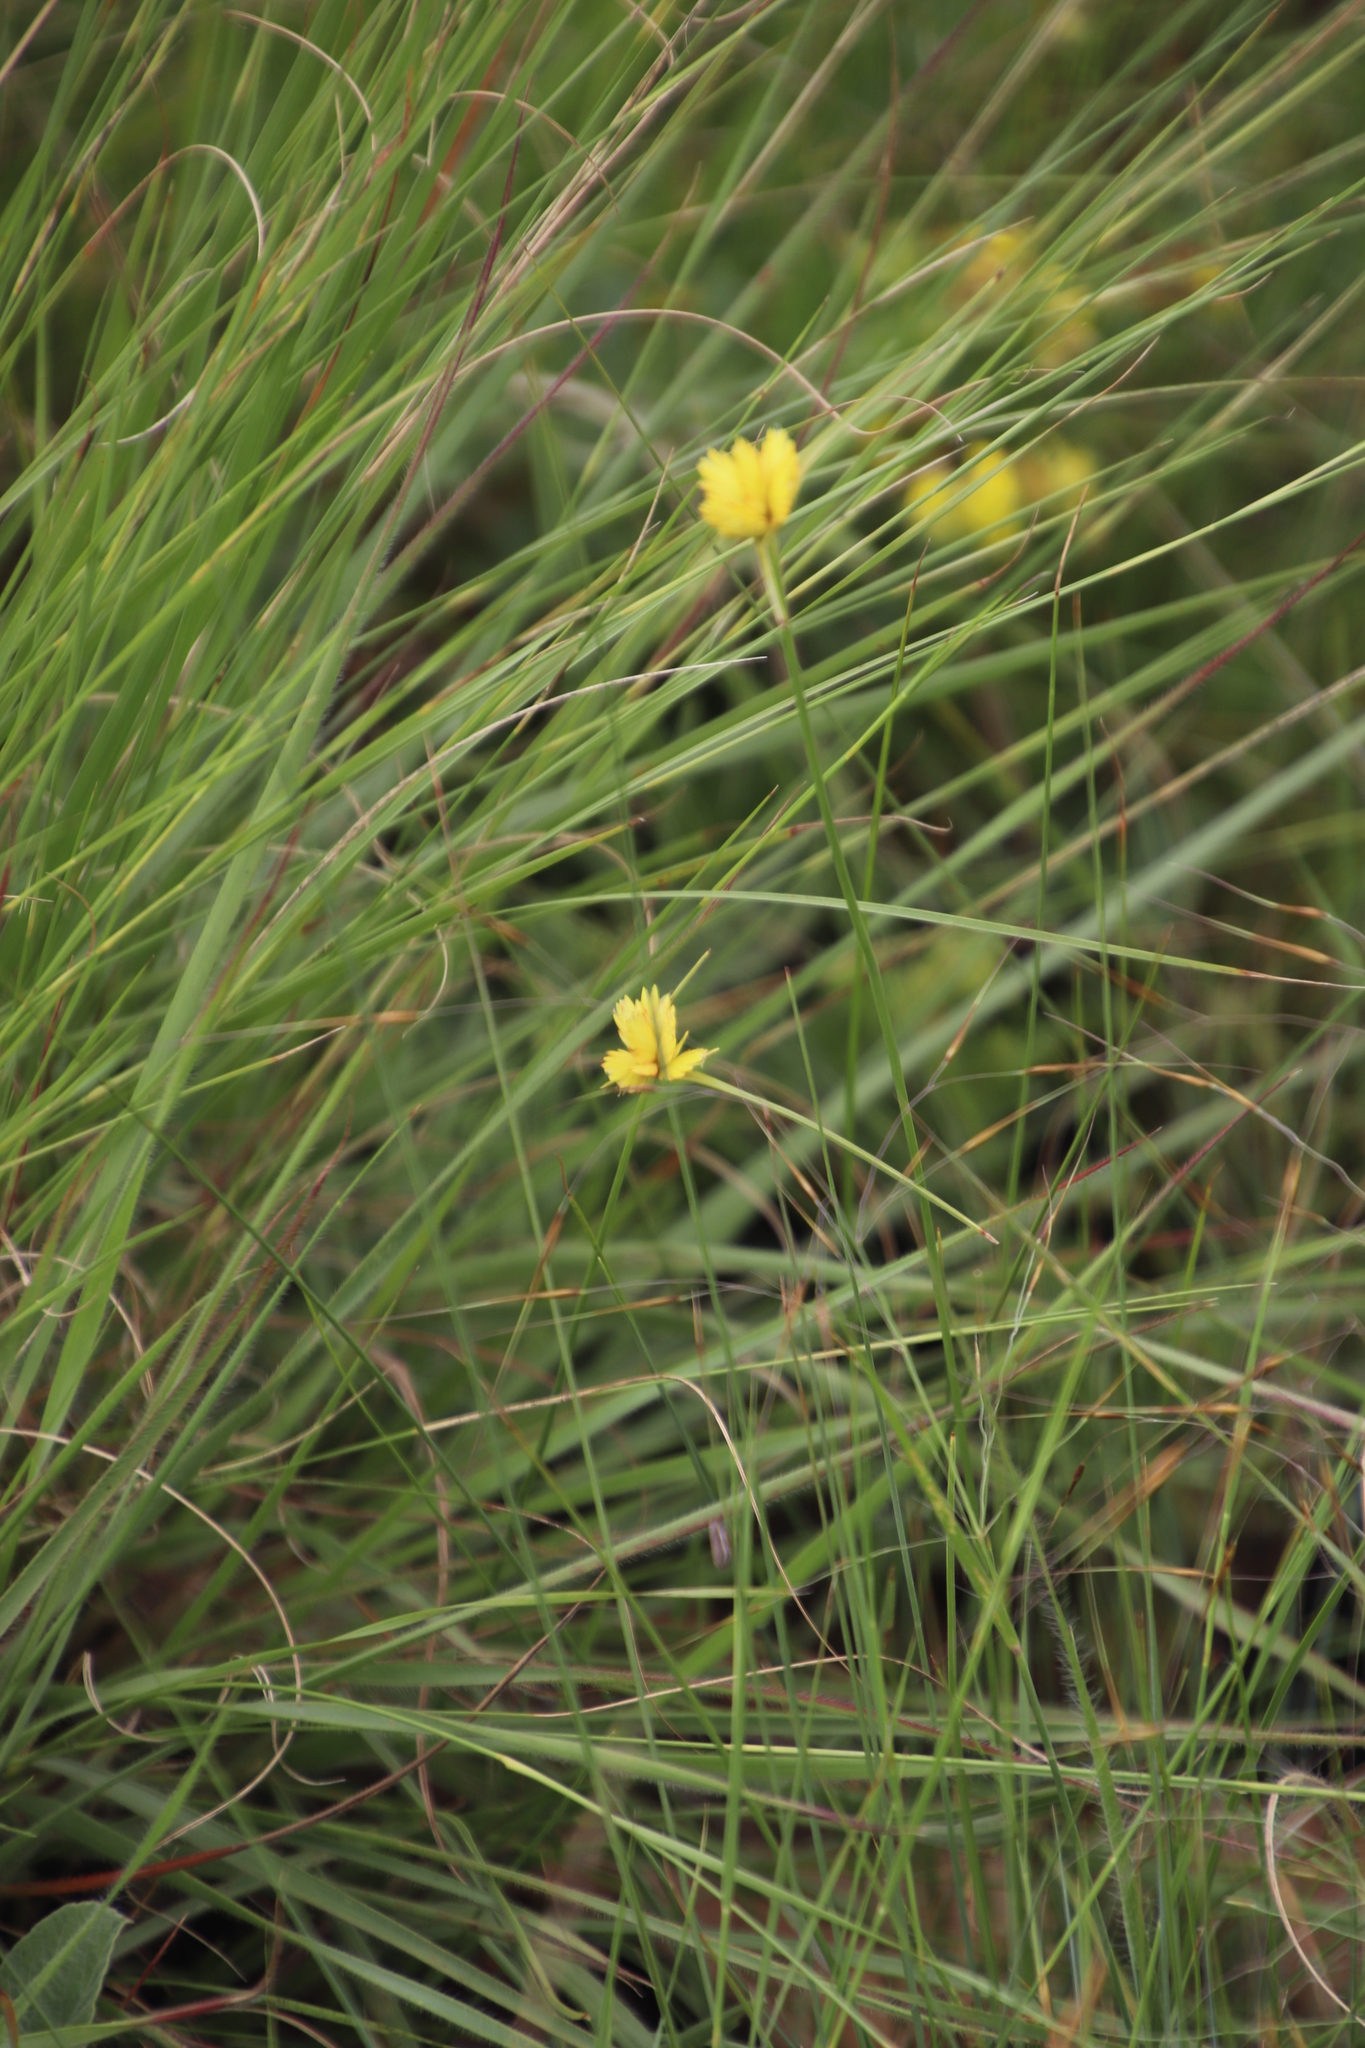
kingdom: Plantae
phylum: Tracheophyta
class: Liliopsida
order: Poales
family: Cyperaceae
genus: Cyperus
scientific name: Cyperus sphaerocephalus
